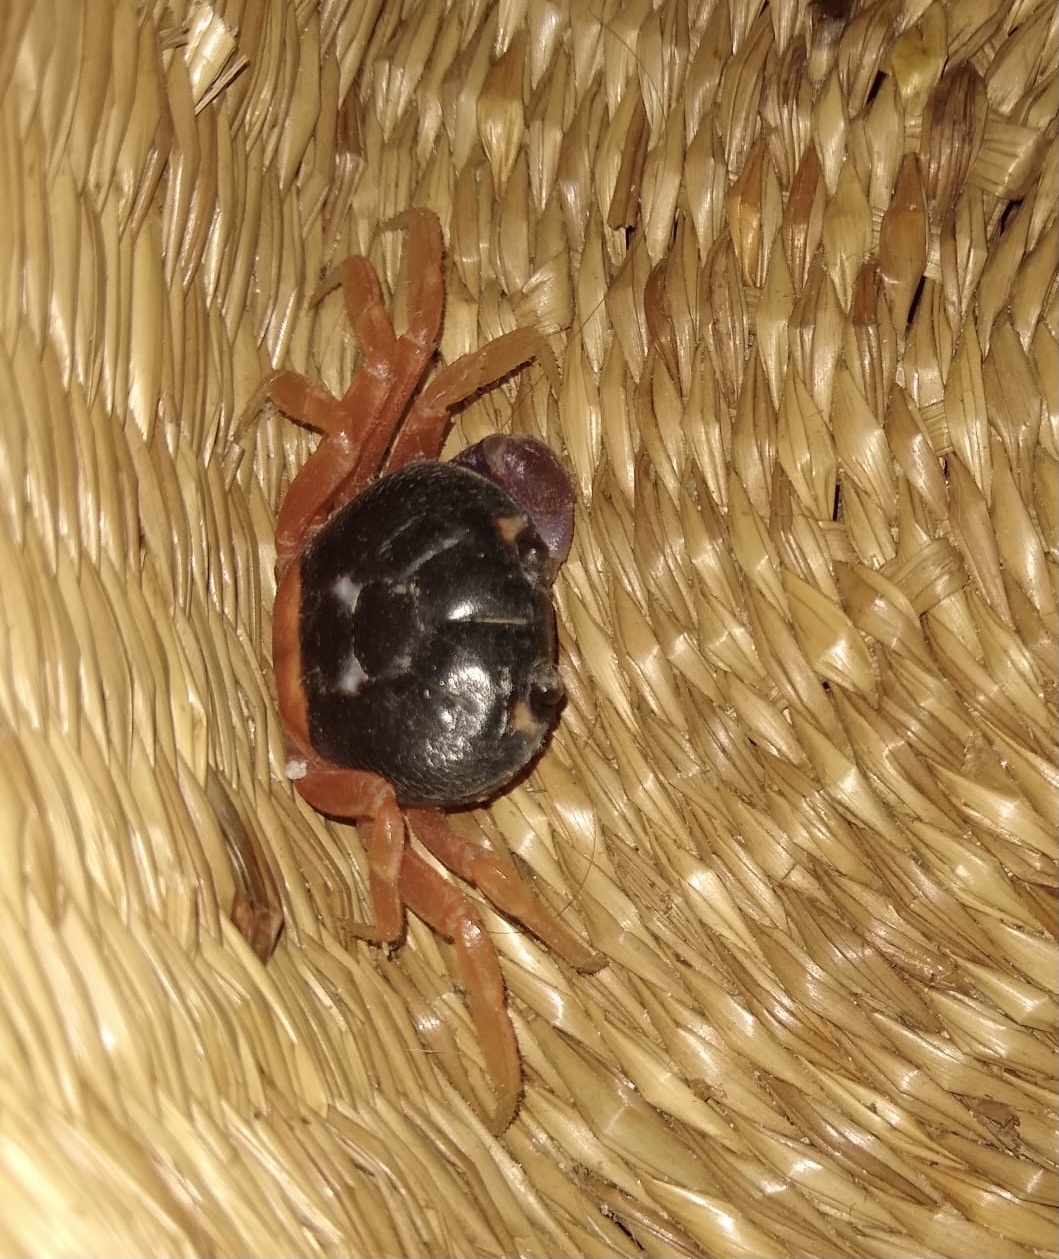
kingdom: Animalia
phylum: Arthropoda
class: Malacostraca
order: Decapoda
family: Gecarcinidae
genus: Gecarcinus
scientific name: Gecarcinus quadratus
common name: Halloween crab
